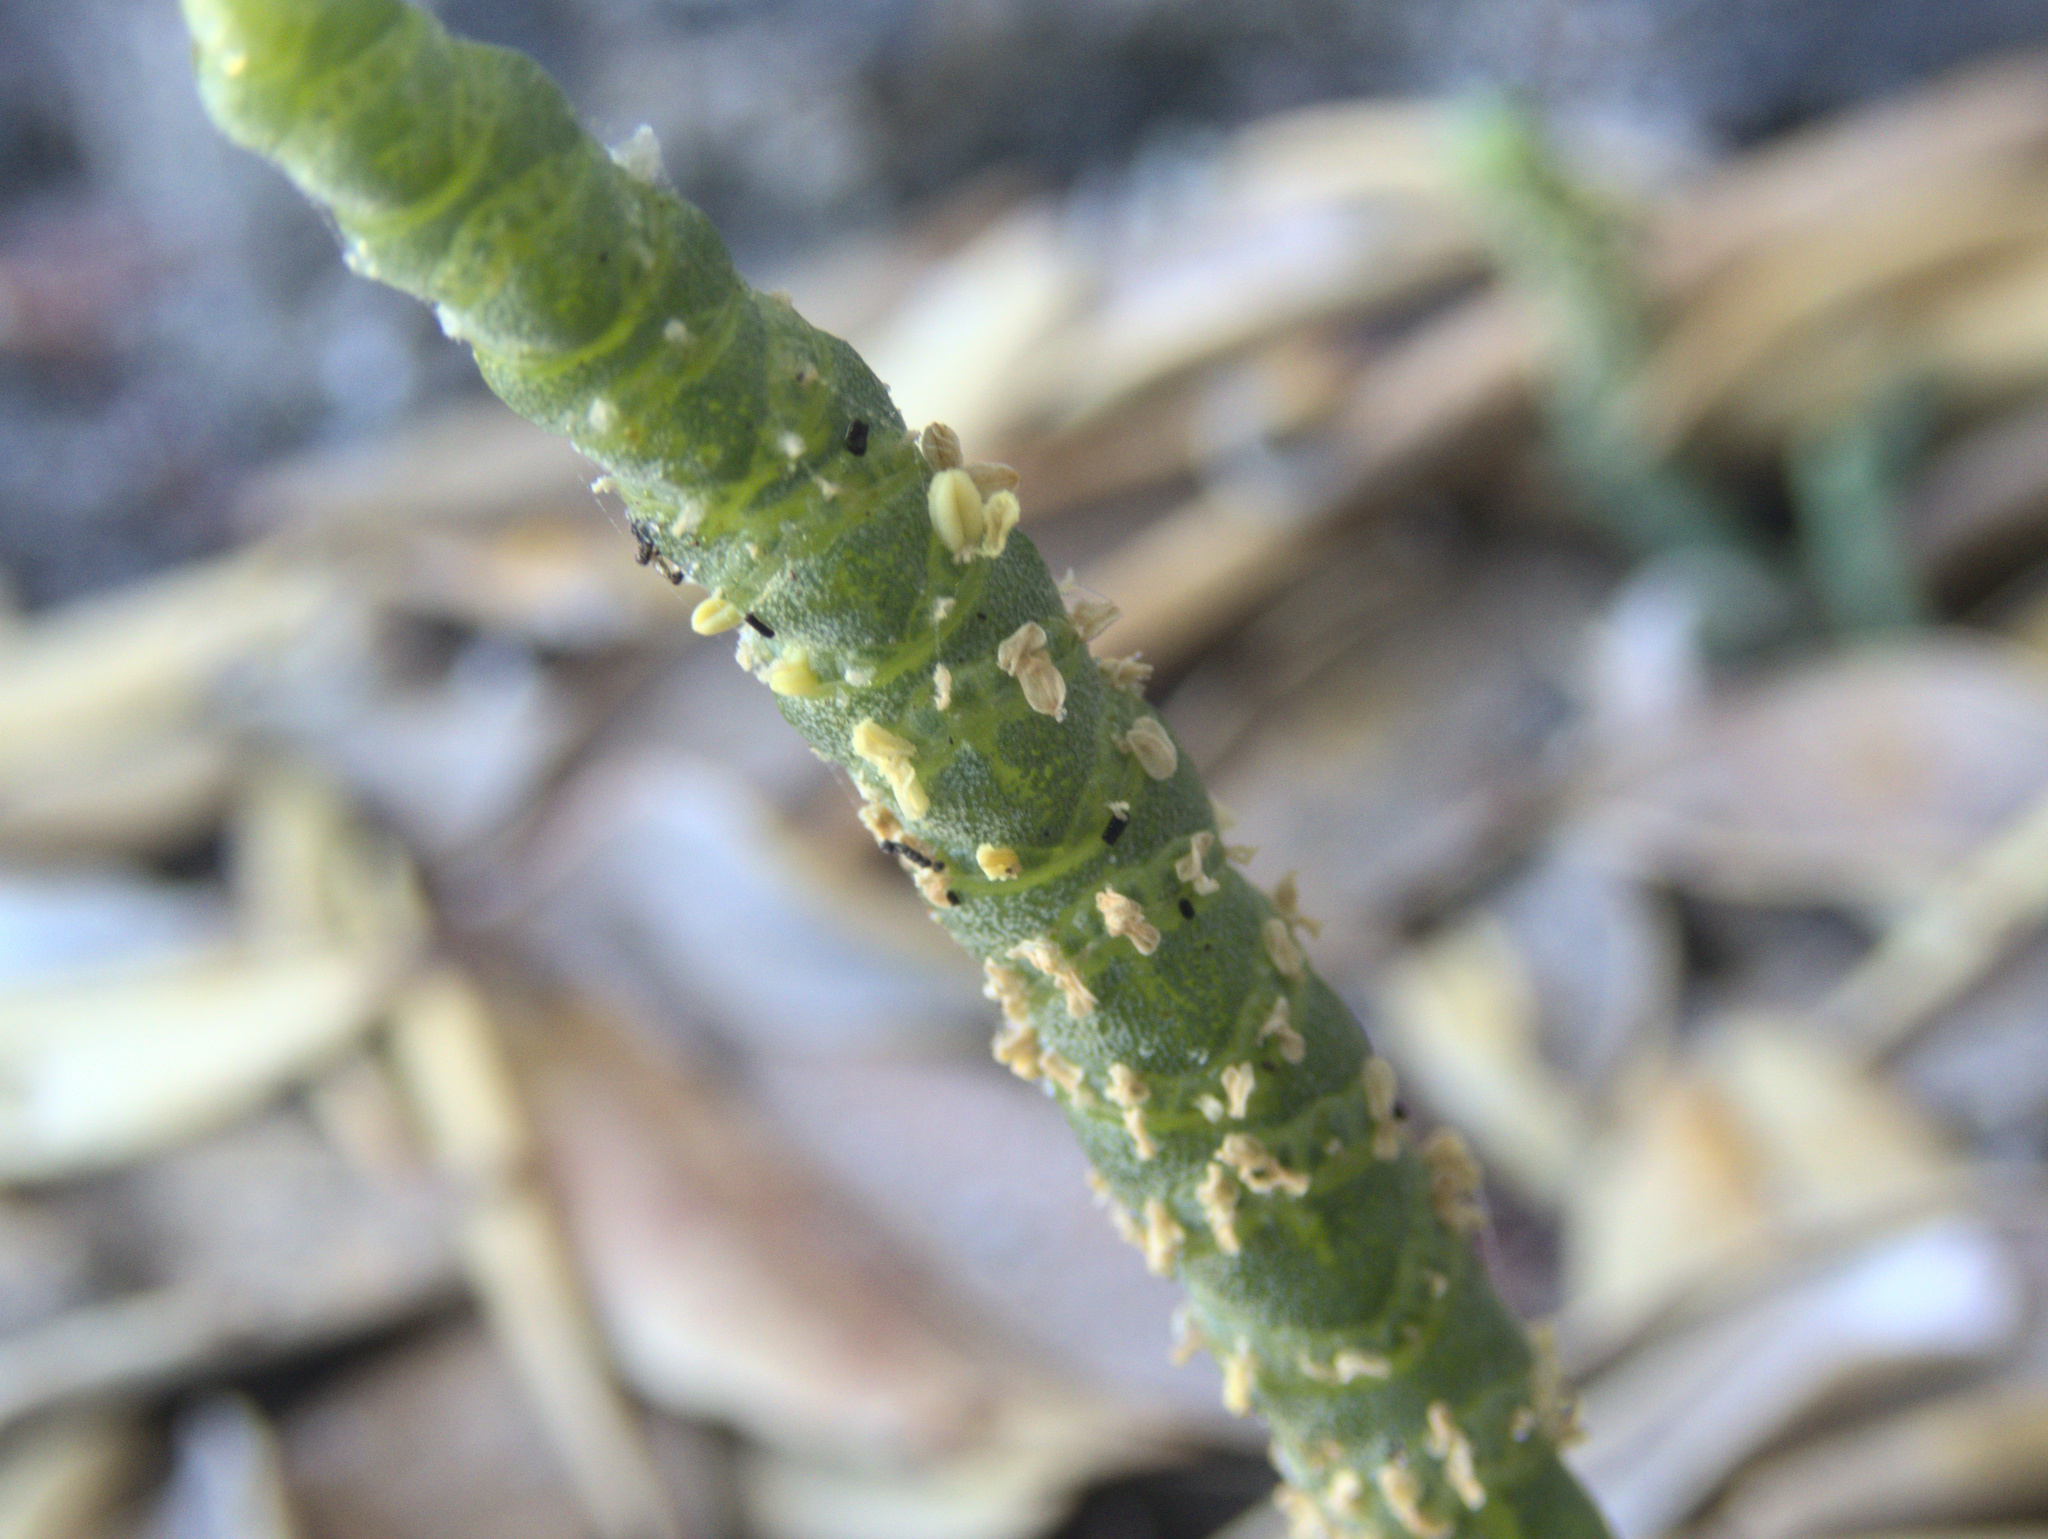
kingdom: Plantae
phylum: Tracheophyta
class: Magnoliopsida
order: Caryophyllales
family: Amaranthaceae
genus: Salicornia
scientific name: Salicornia quinqueflora
